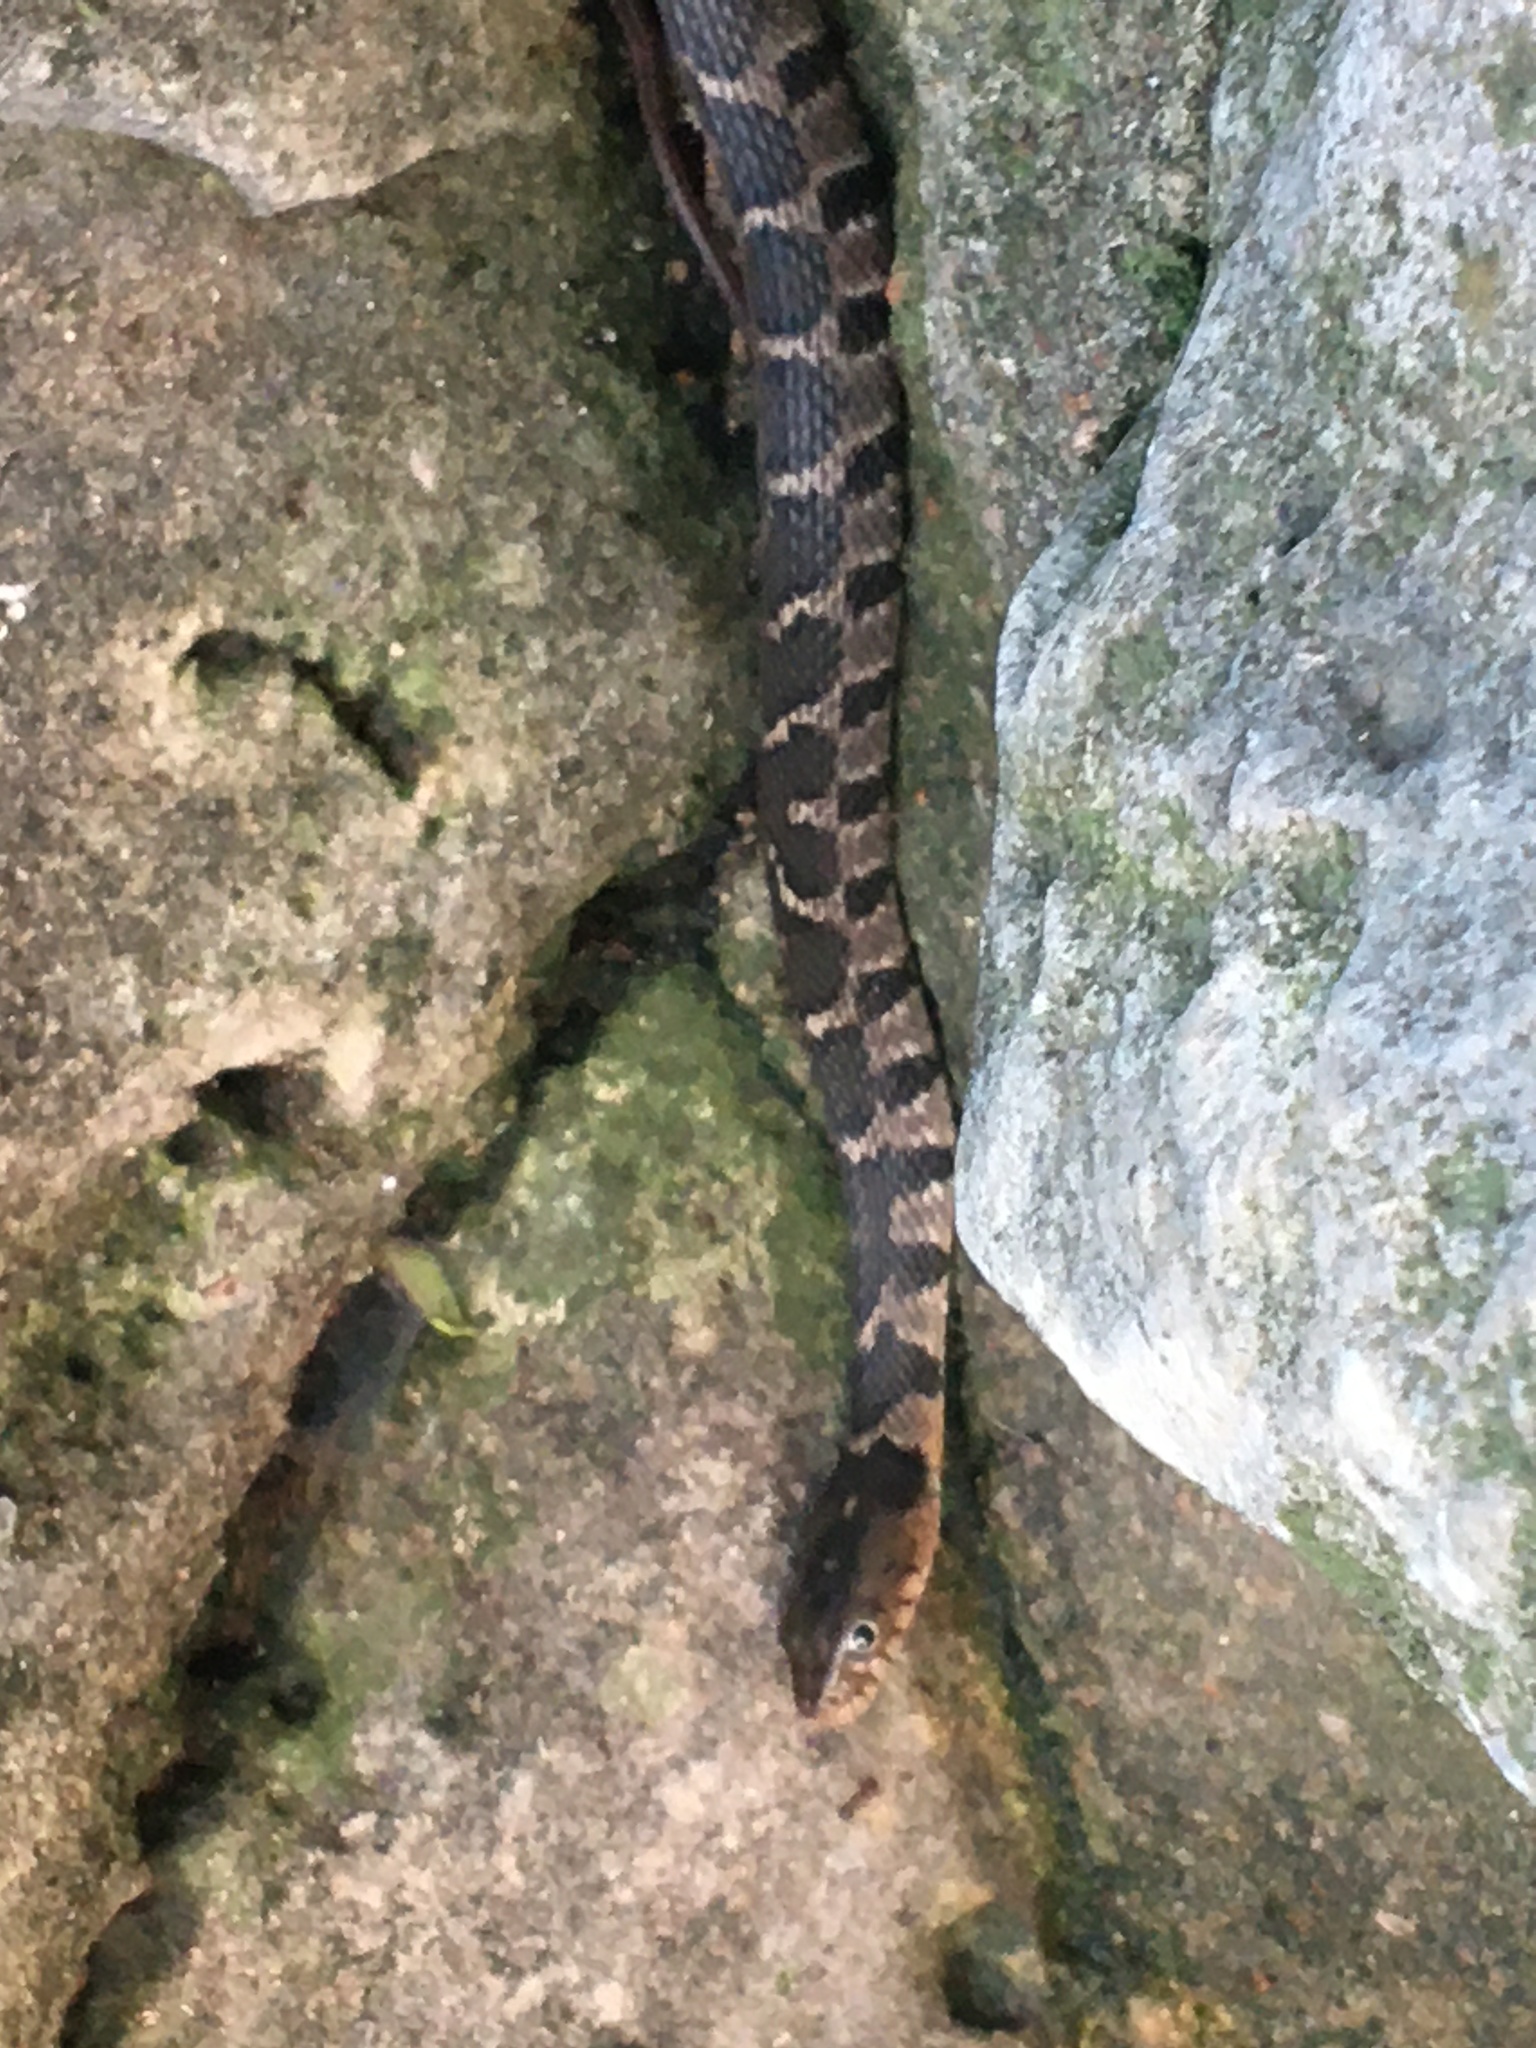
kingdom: Animalia
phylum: Chordata
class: Squamata
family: Colubridae
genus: Nerodia
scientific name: Nerodia erythrogaster
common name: Plainbelly water snake
